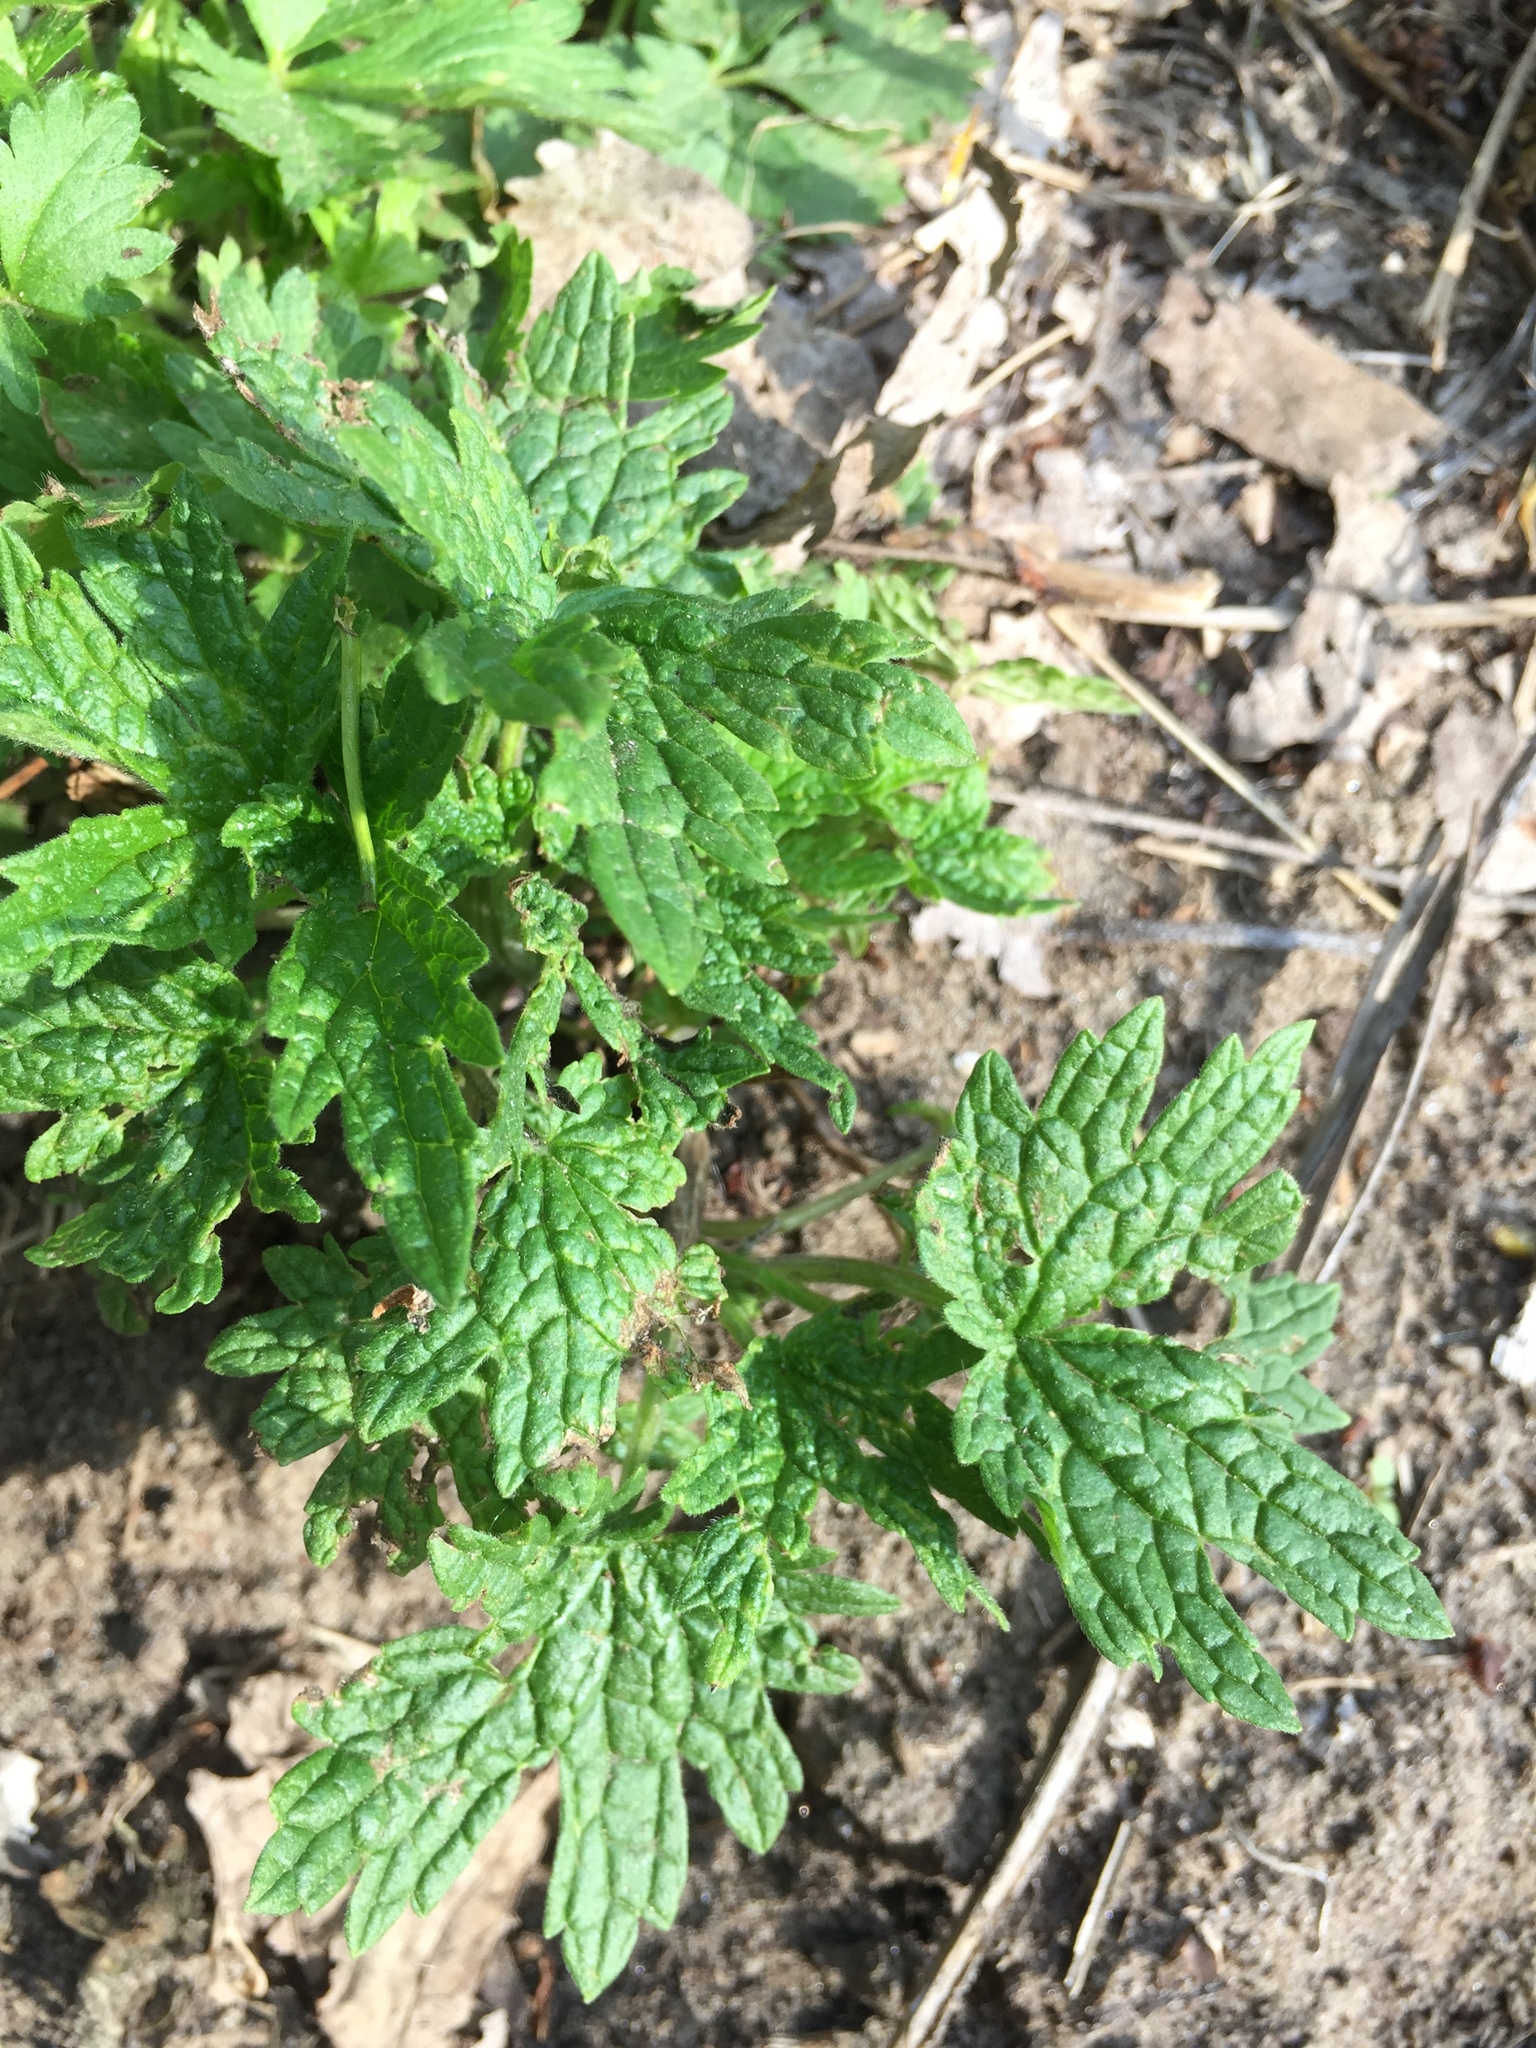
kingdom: Plantae
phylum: Tracheophyta
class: Magnoliopsida
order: Lamiales
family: Lamiaceae
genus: Leonurus
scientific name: Leonurus cardiaca
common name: Motherwort
